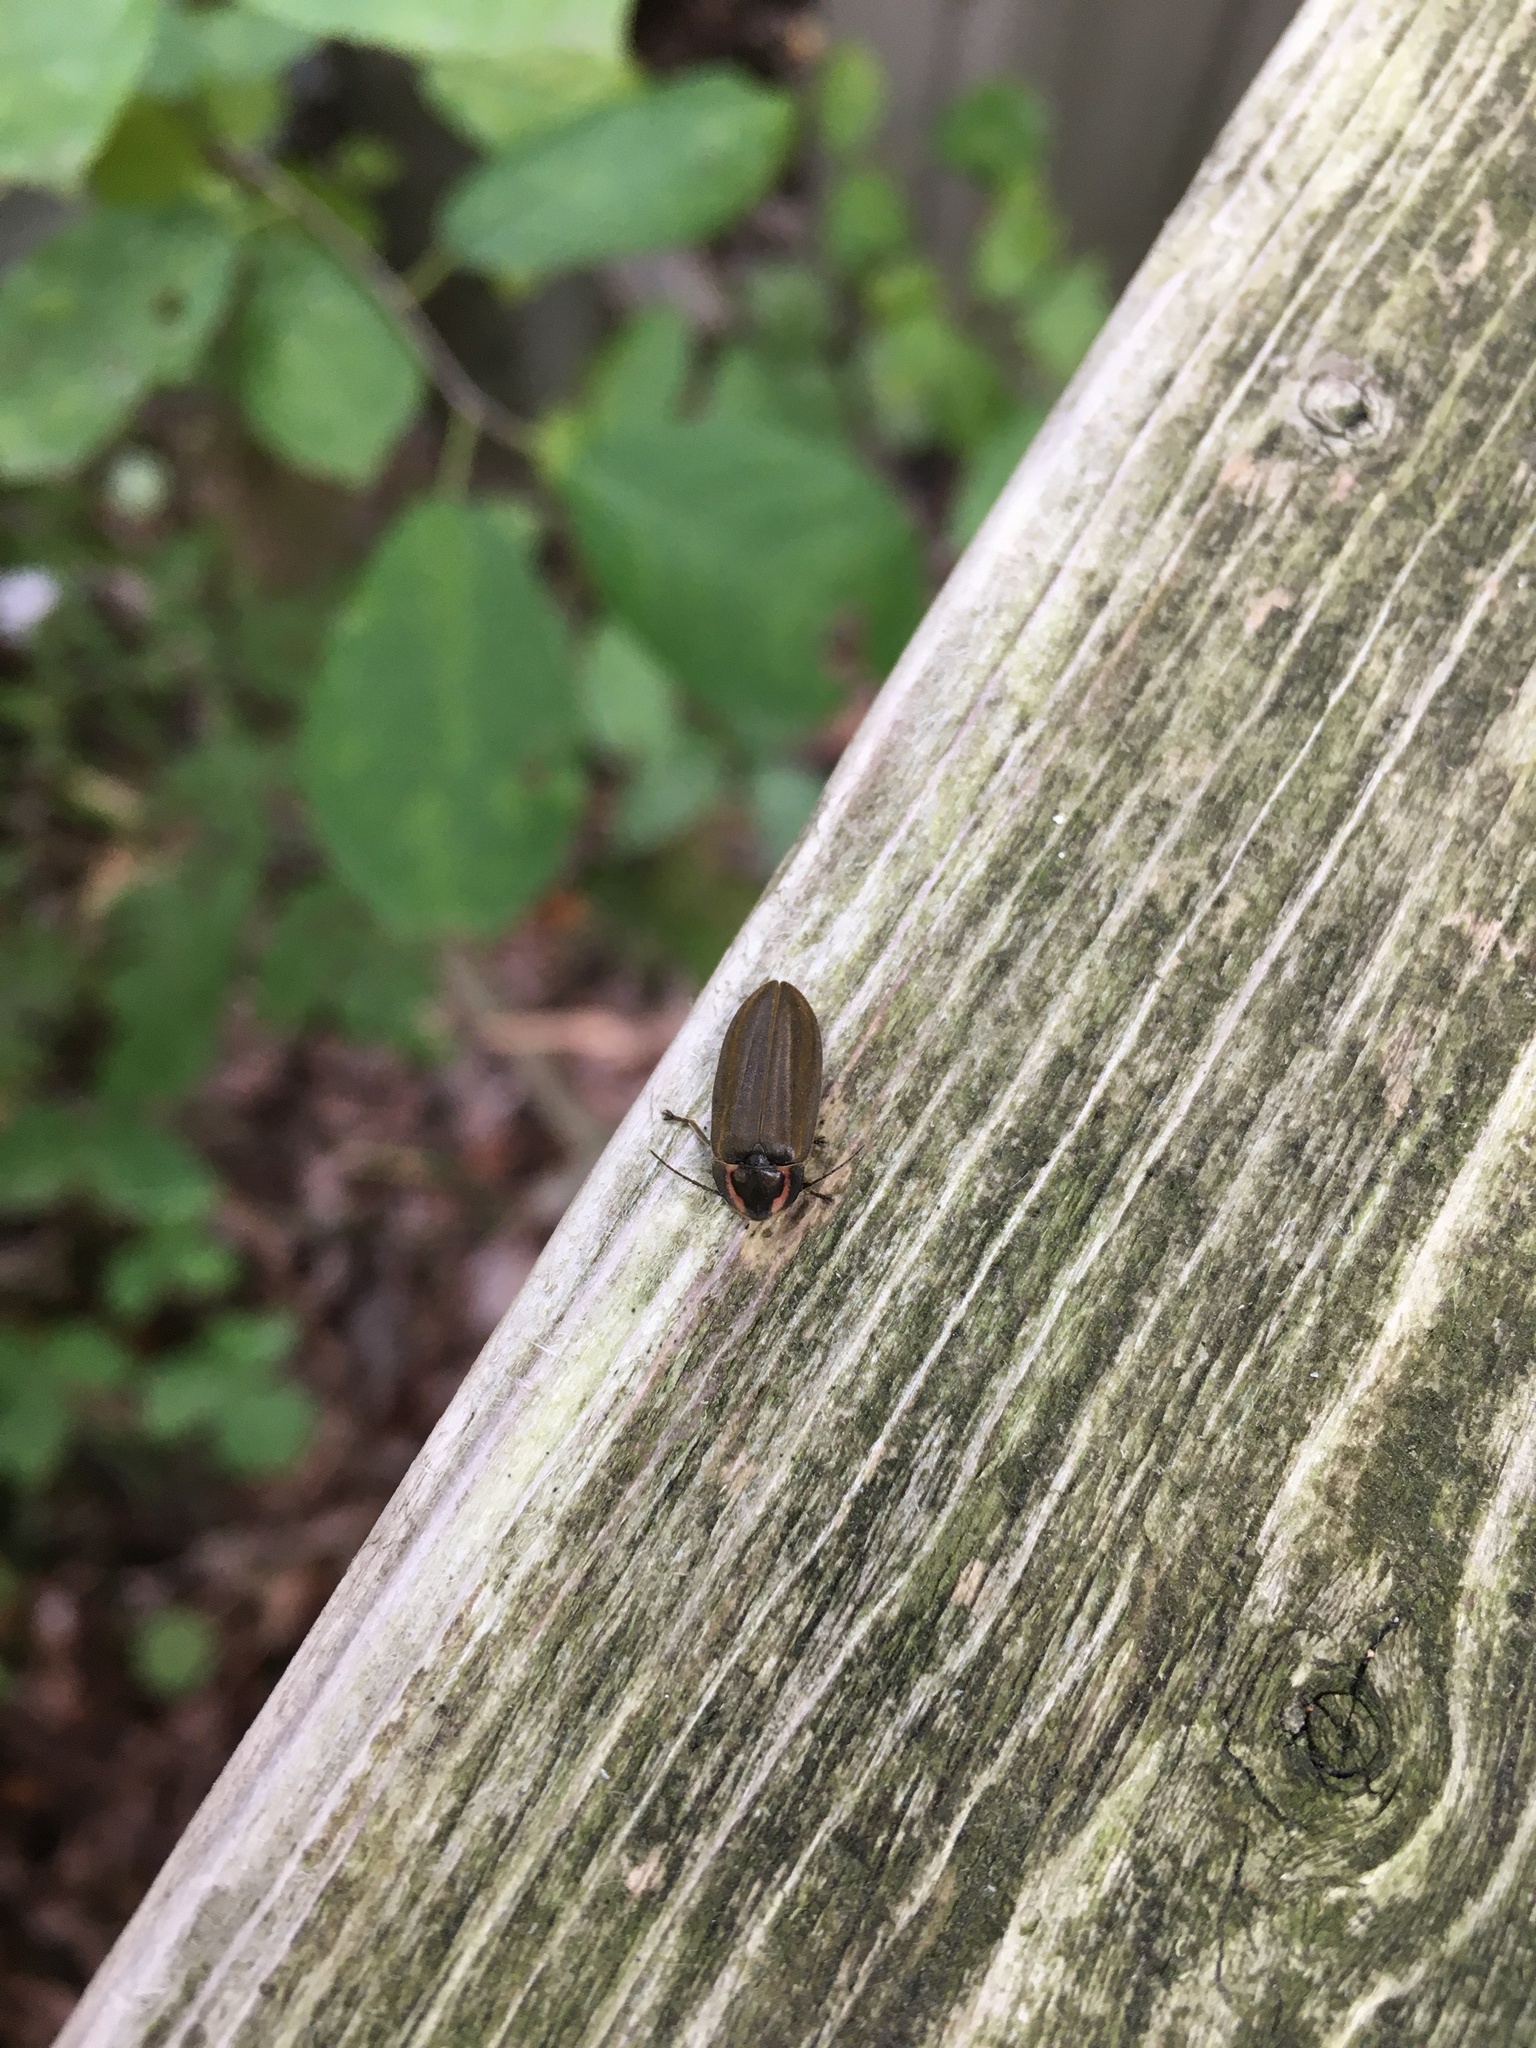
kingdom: Animalia
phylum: Arthropoda
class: Insecta
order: Coleoptera
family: Lampyridae
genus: Photinus
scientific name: Photinus corrusca
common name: Winter firefly
